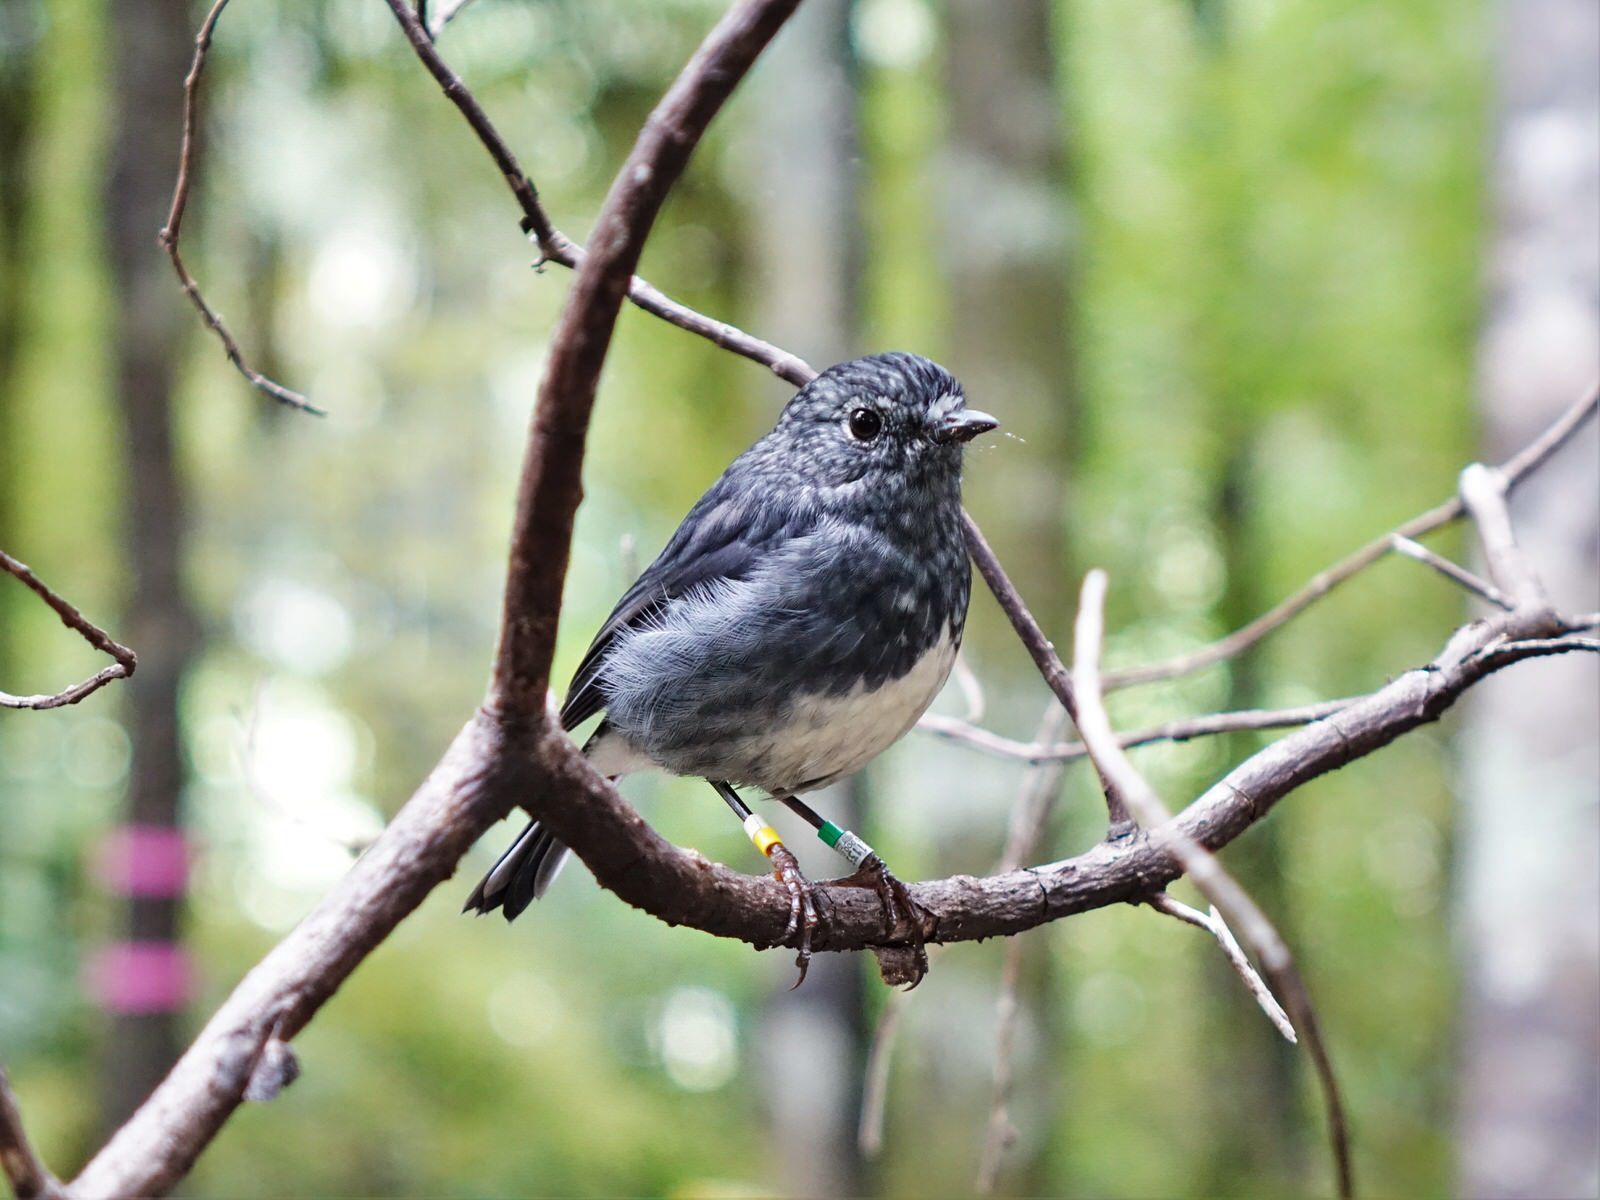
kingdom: Animalia
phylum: Chordata
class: Aves
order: Passeriformes
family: Petroicidae
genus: Petroica
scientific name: Petroica australis
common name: New zealand robin
